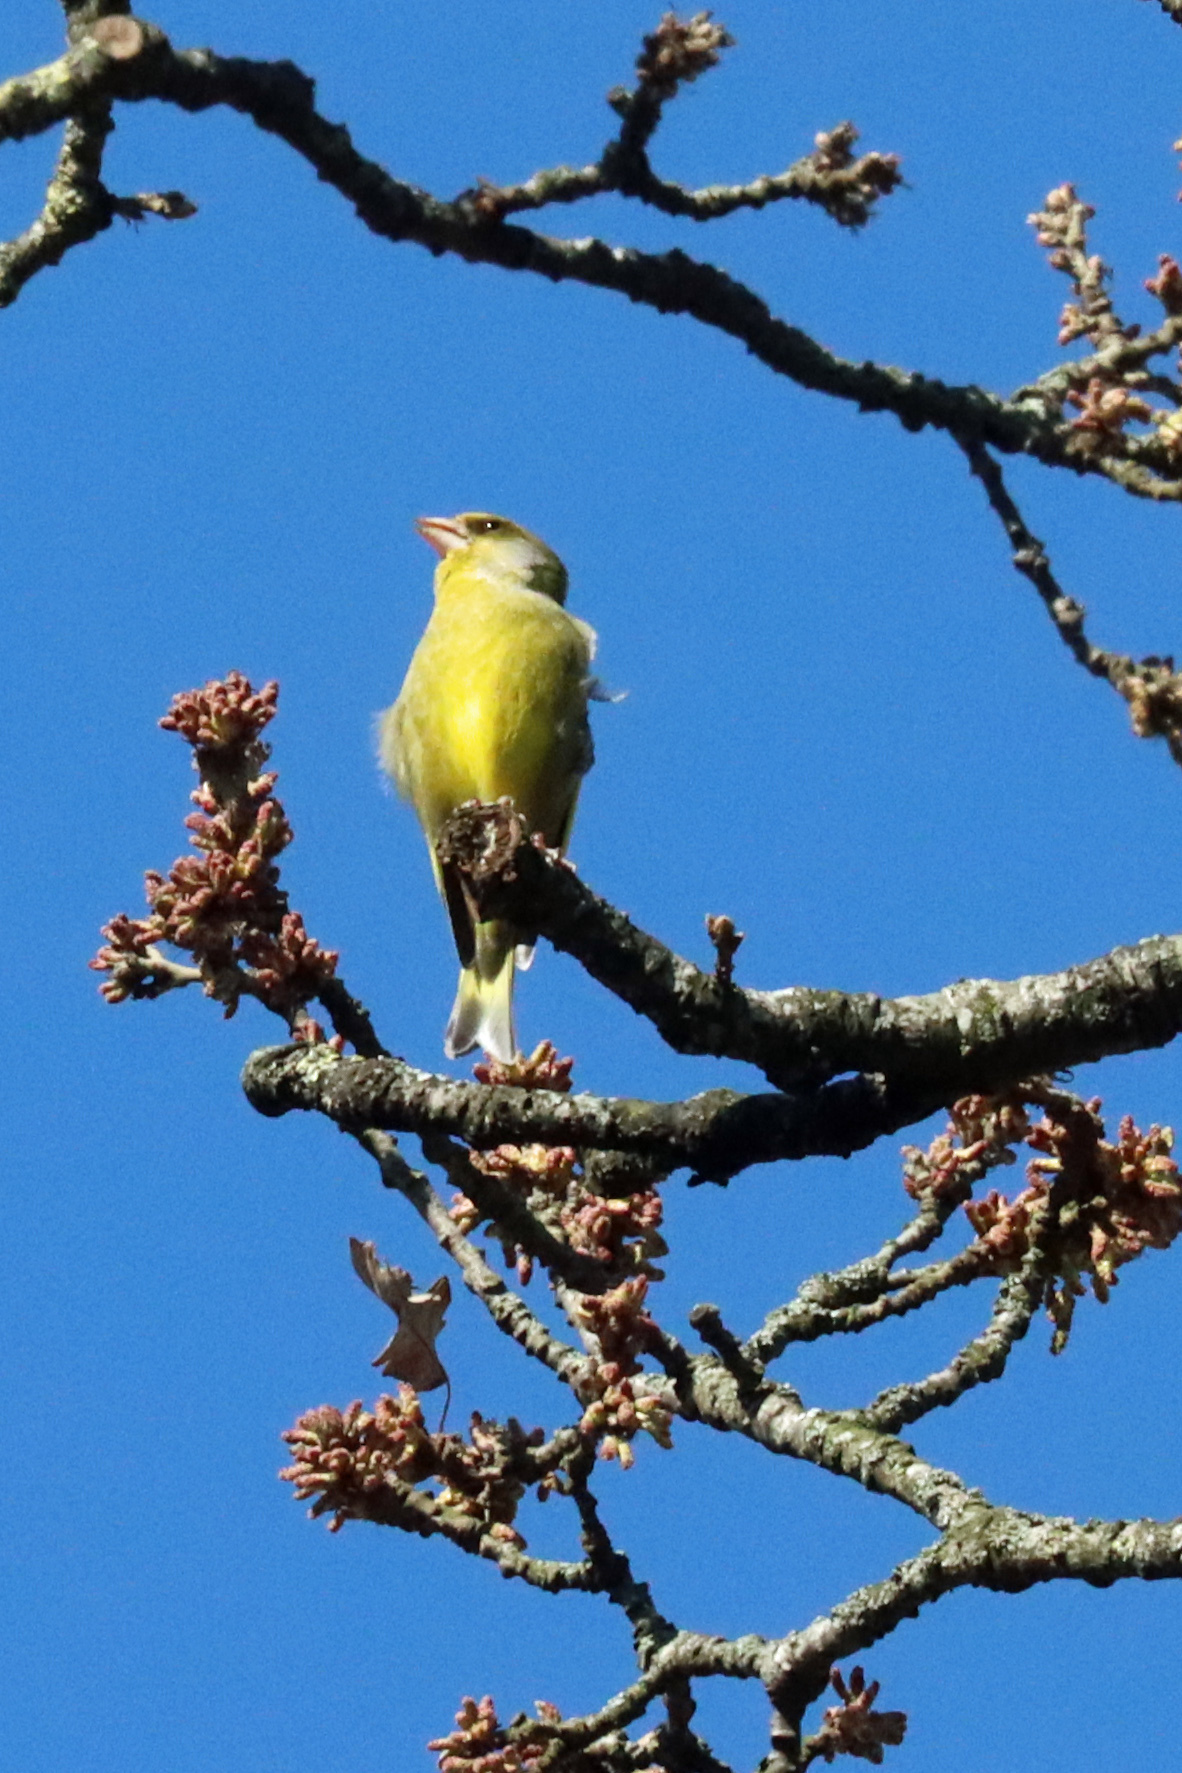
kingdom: Plantae
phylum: Tracheophyta
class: Liliopsida
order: Poales
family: Poaceae
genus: Chloris
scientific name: Chloris chloris
